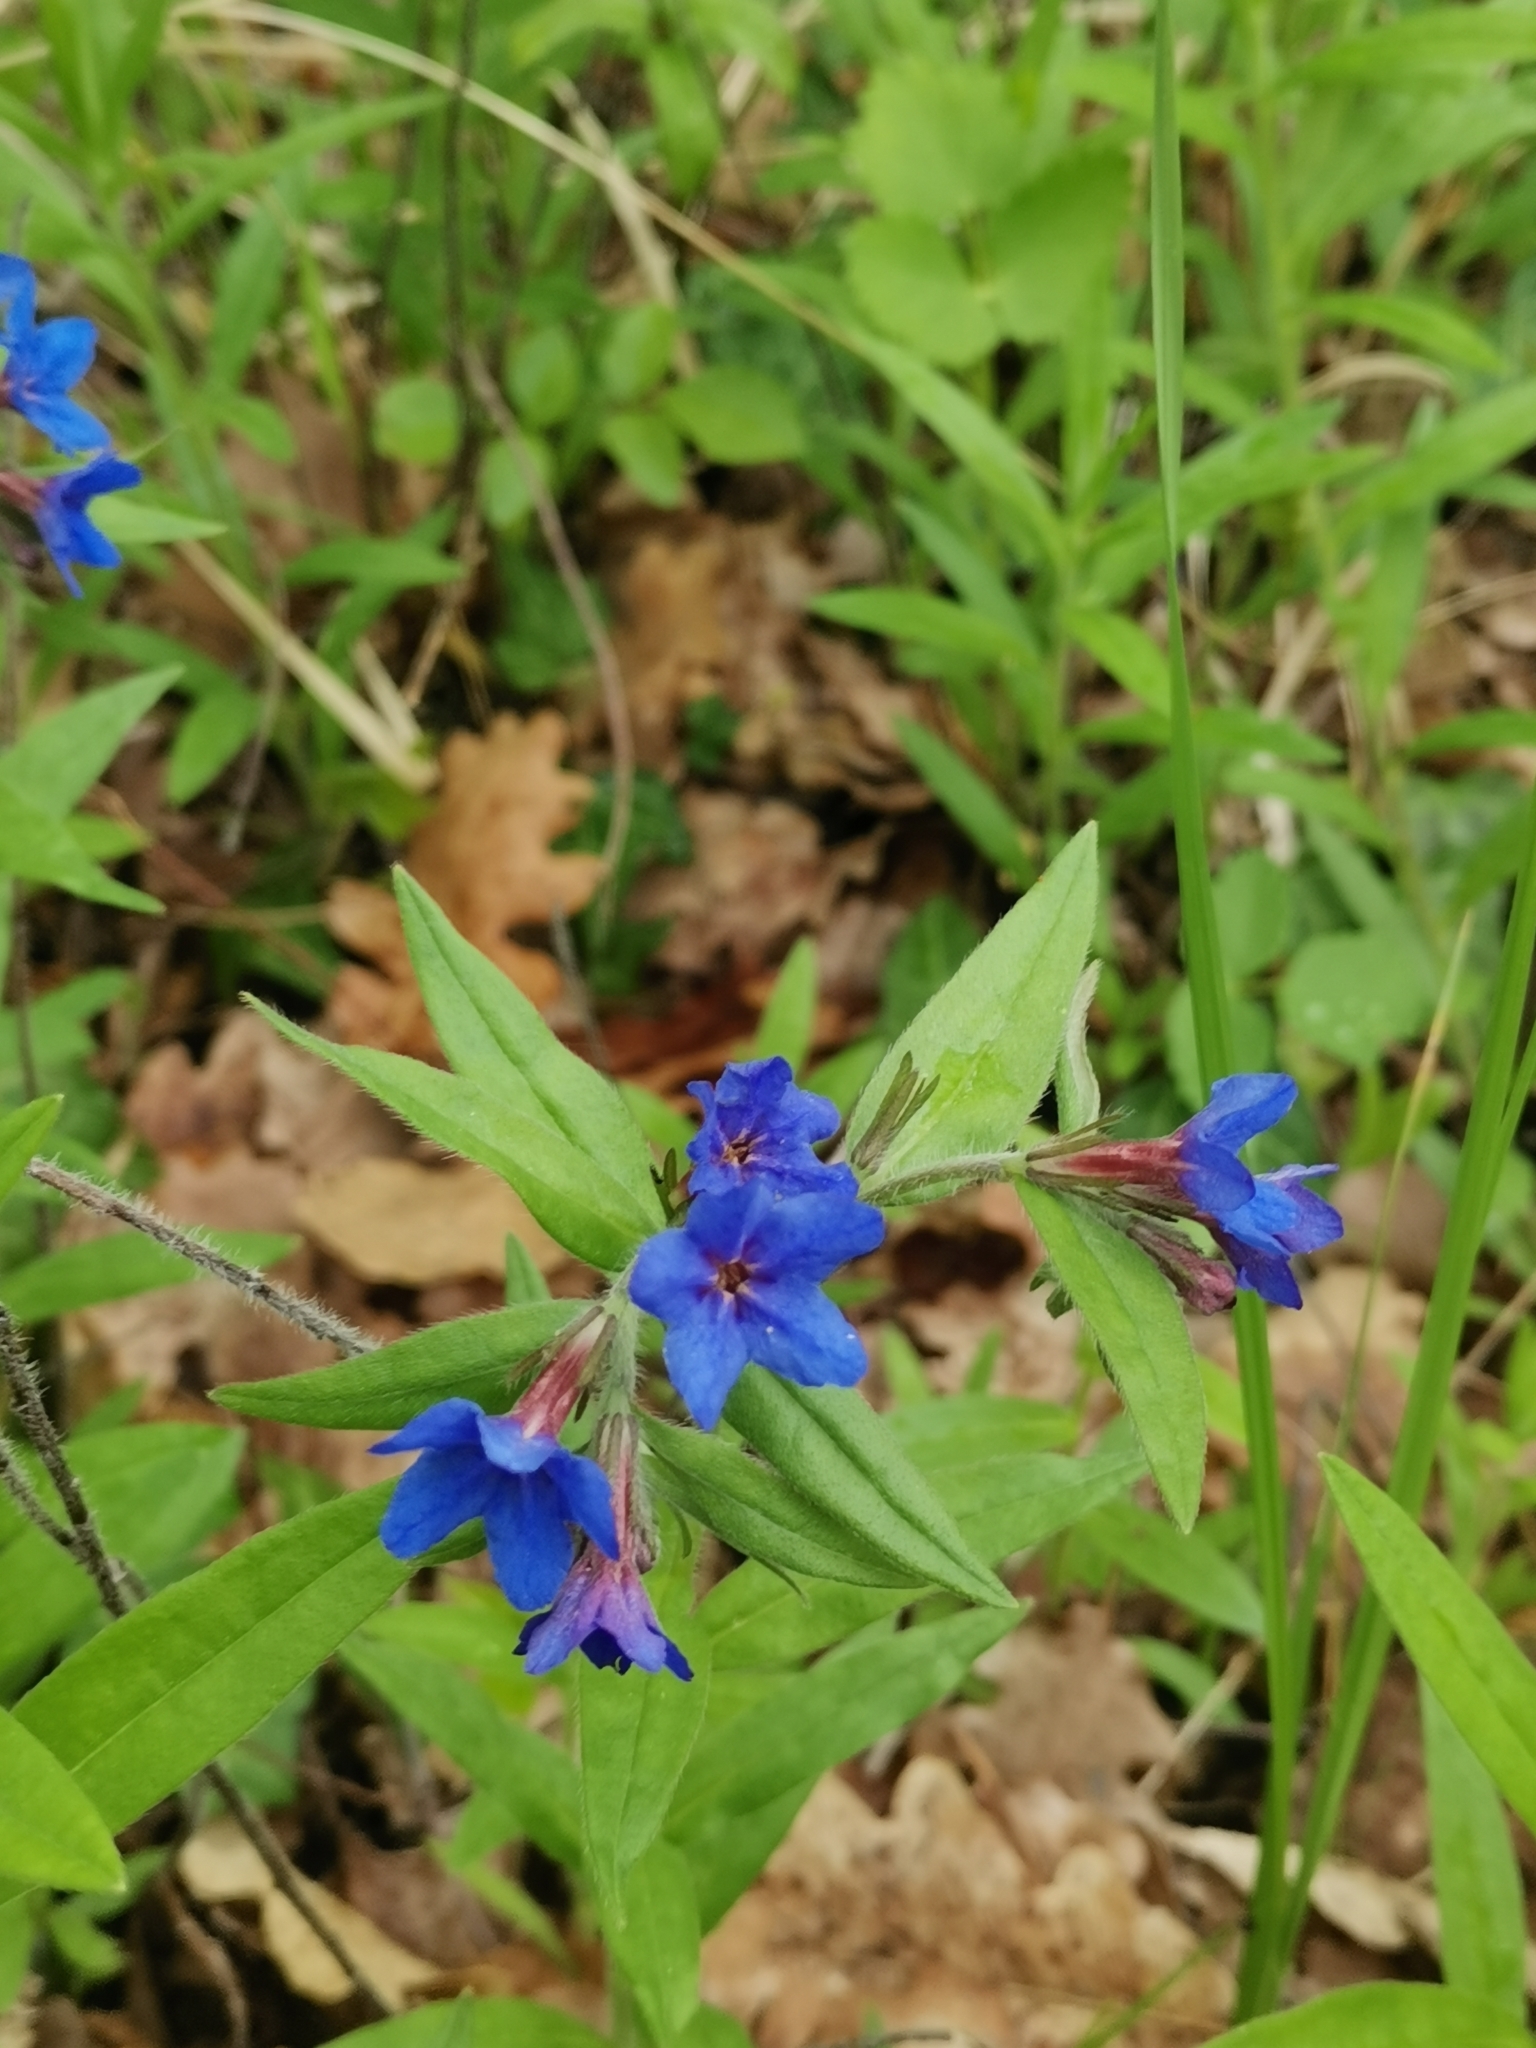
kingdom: Plantae
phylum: Tracheophyta
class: Magnoliopsida
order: Boraginales
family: Boraginaceae
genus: Aegonychon
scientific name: Aegonychon purpurocaeruleum
